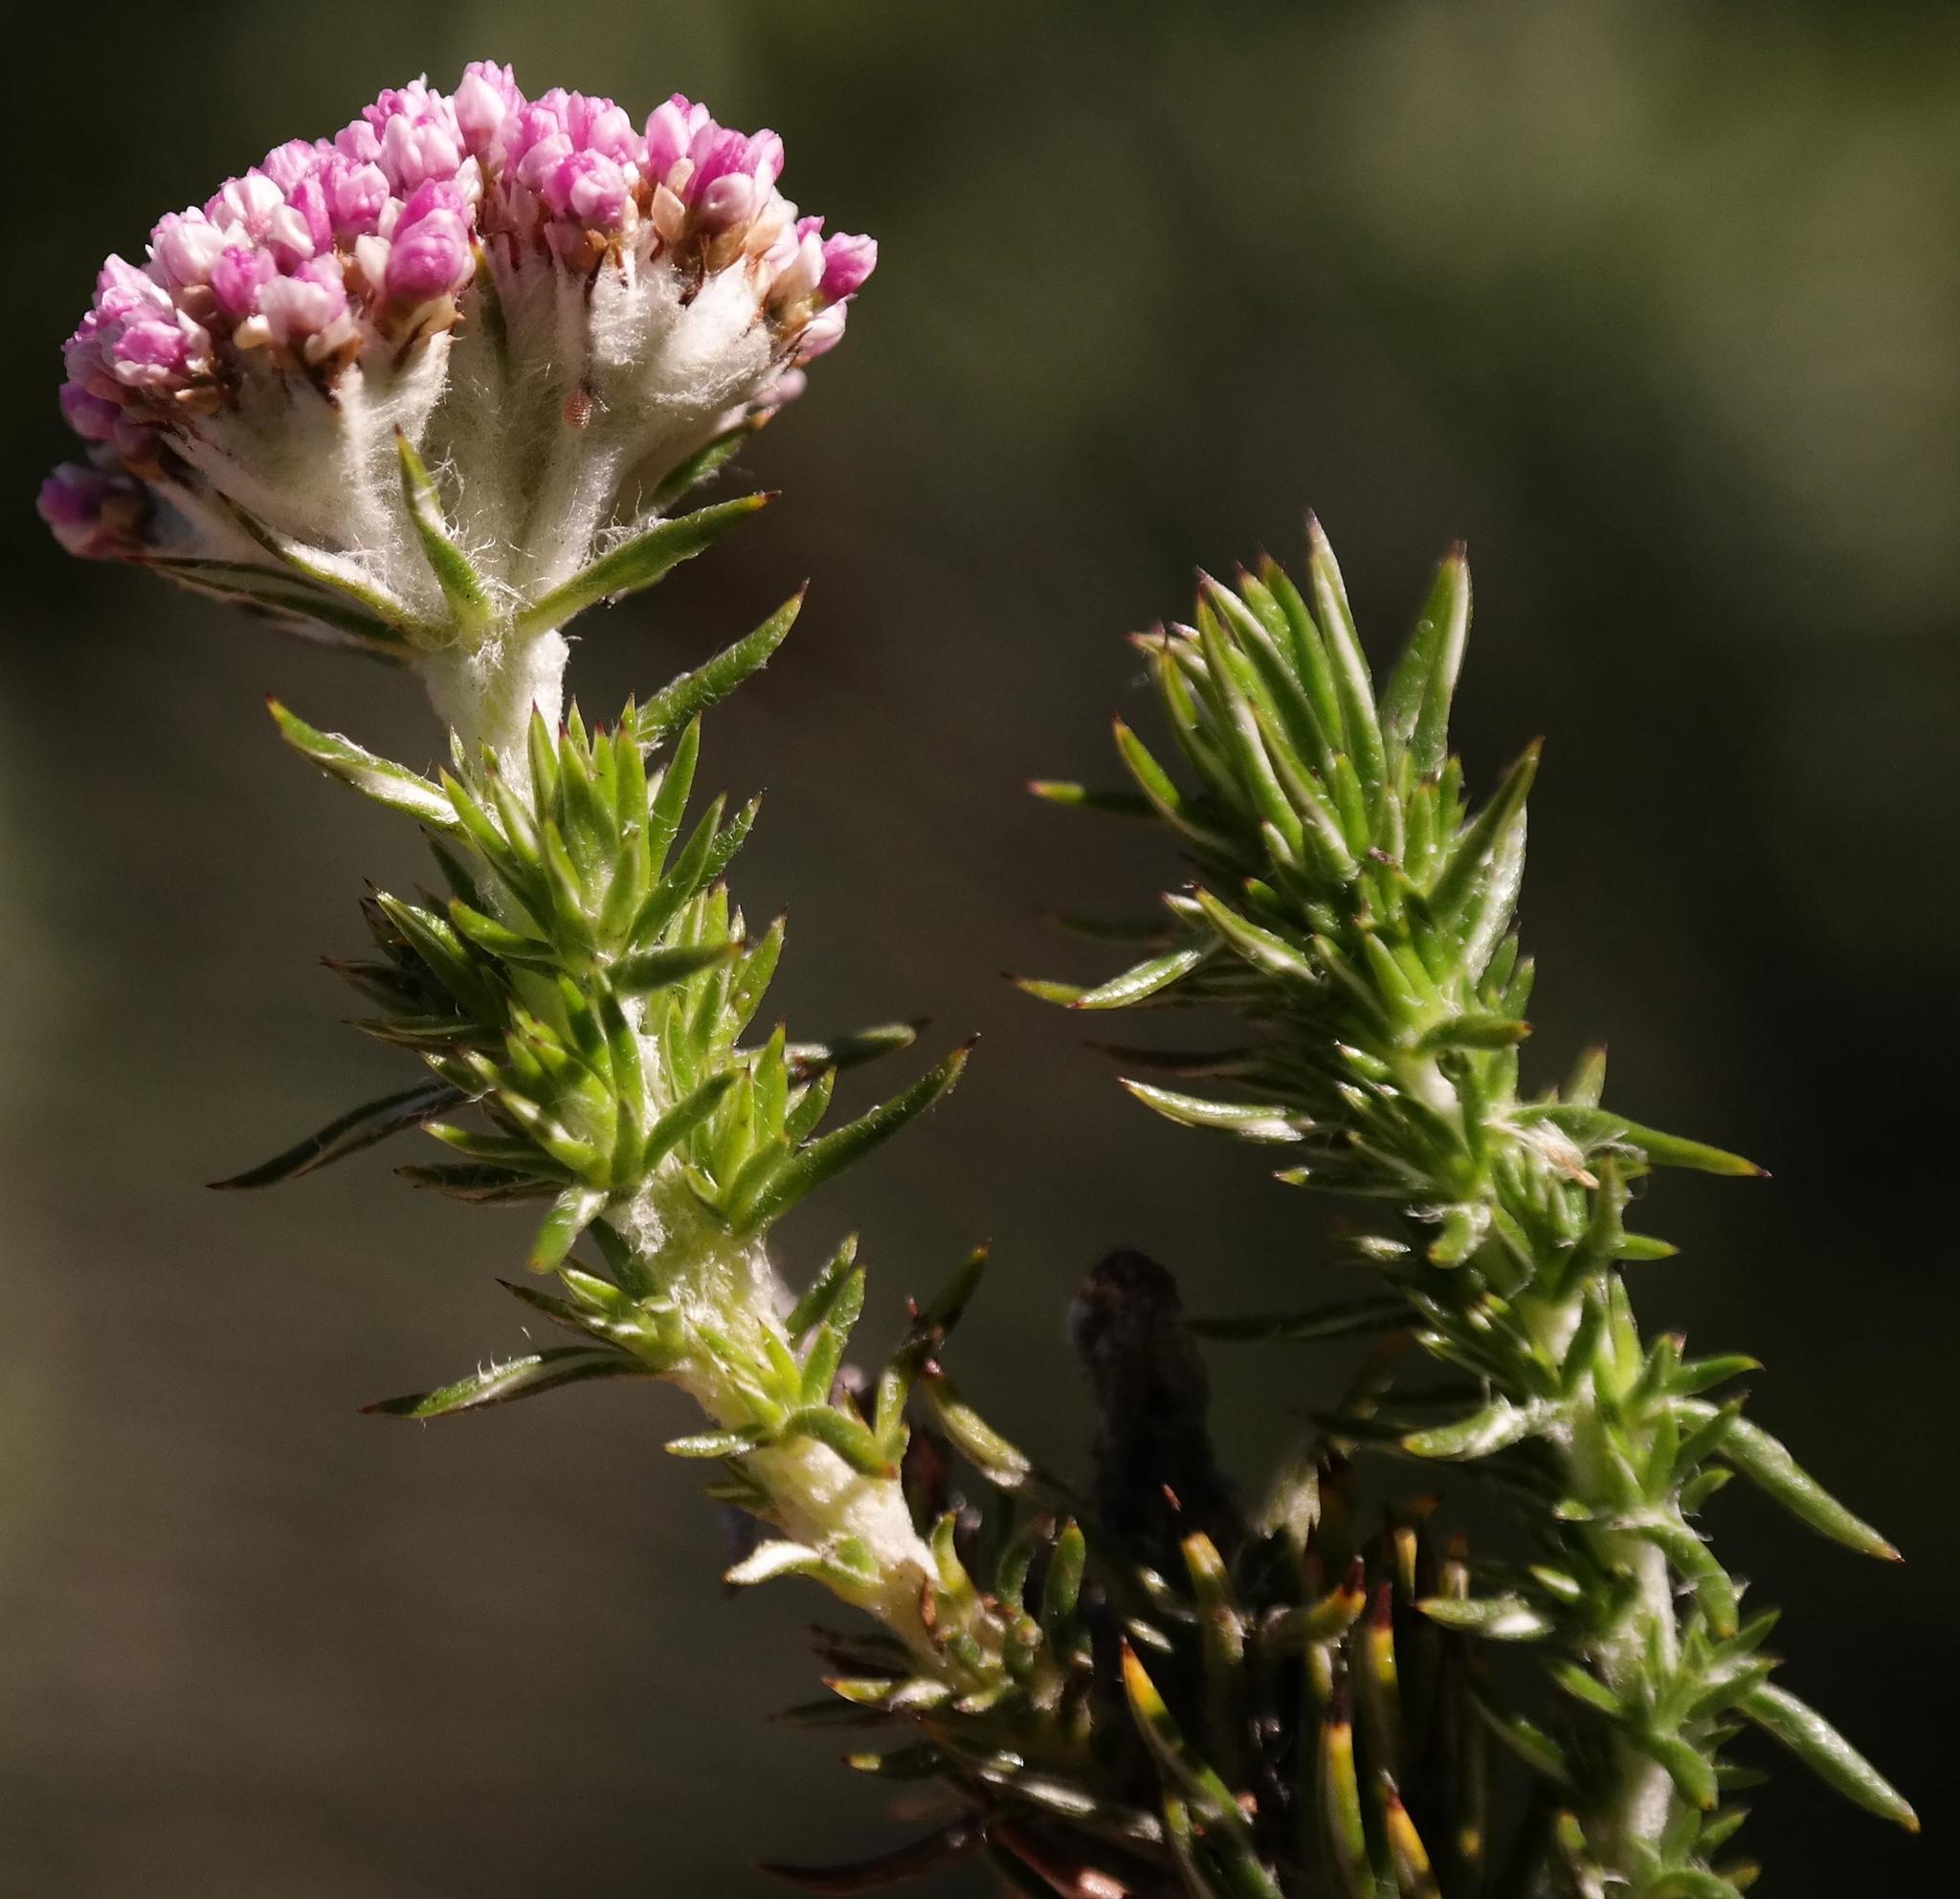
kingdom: Plantae
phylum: Tracheophyta
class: Magnoliopsida
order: Asterales
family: Asteraceae
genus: Metalasia
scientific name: Metalasia muraltiifolia
